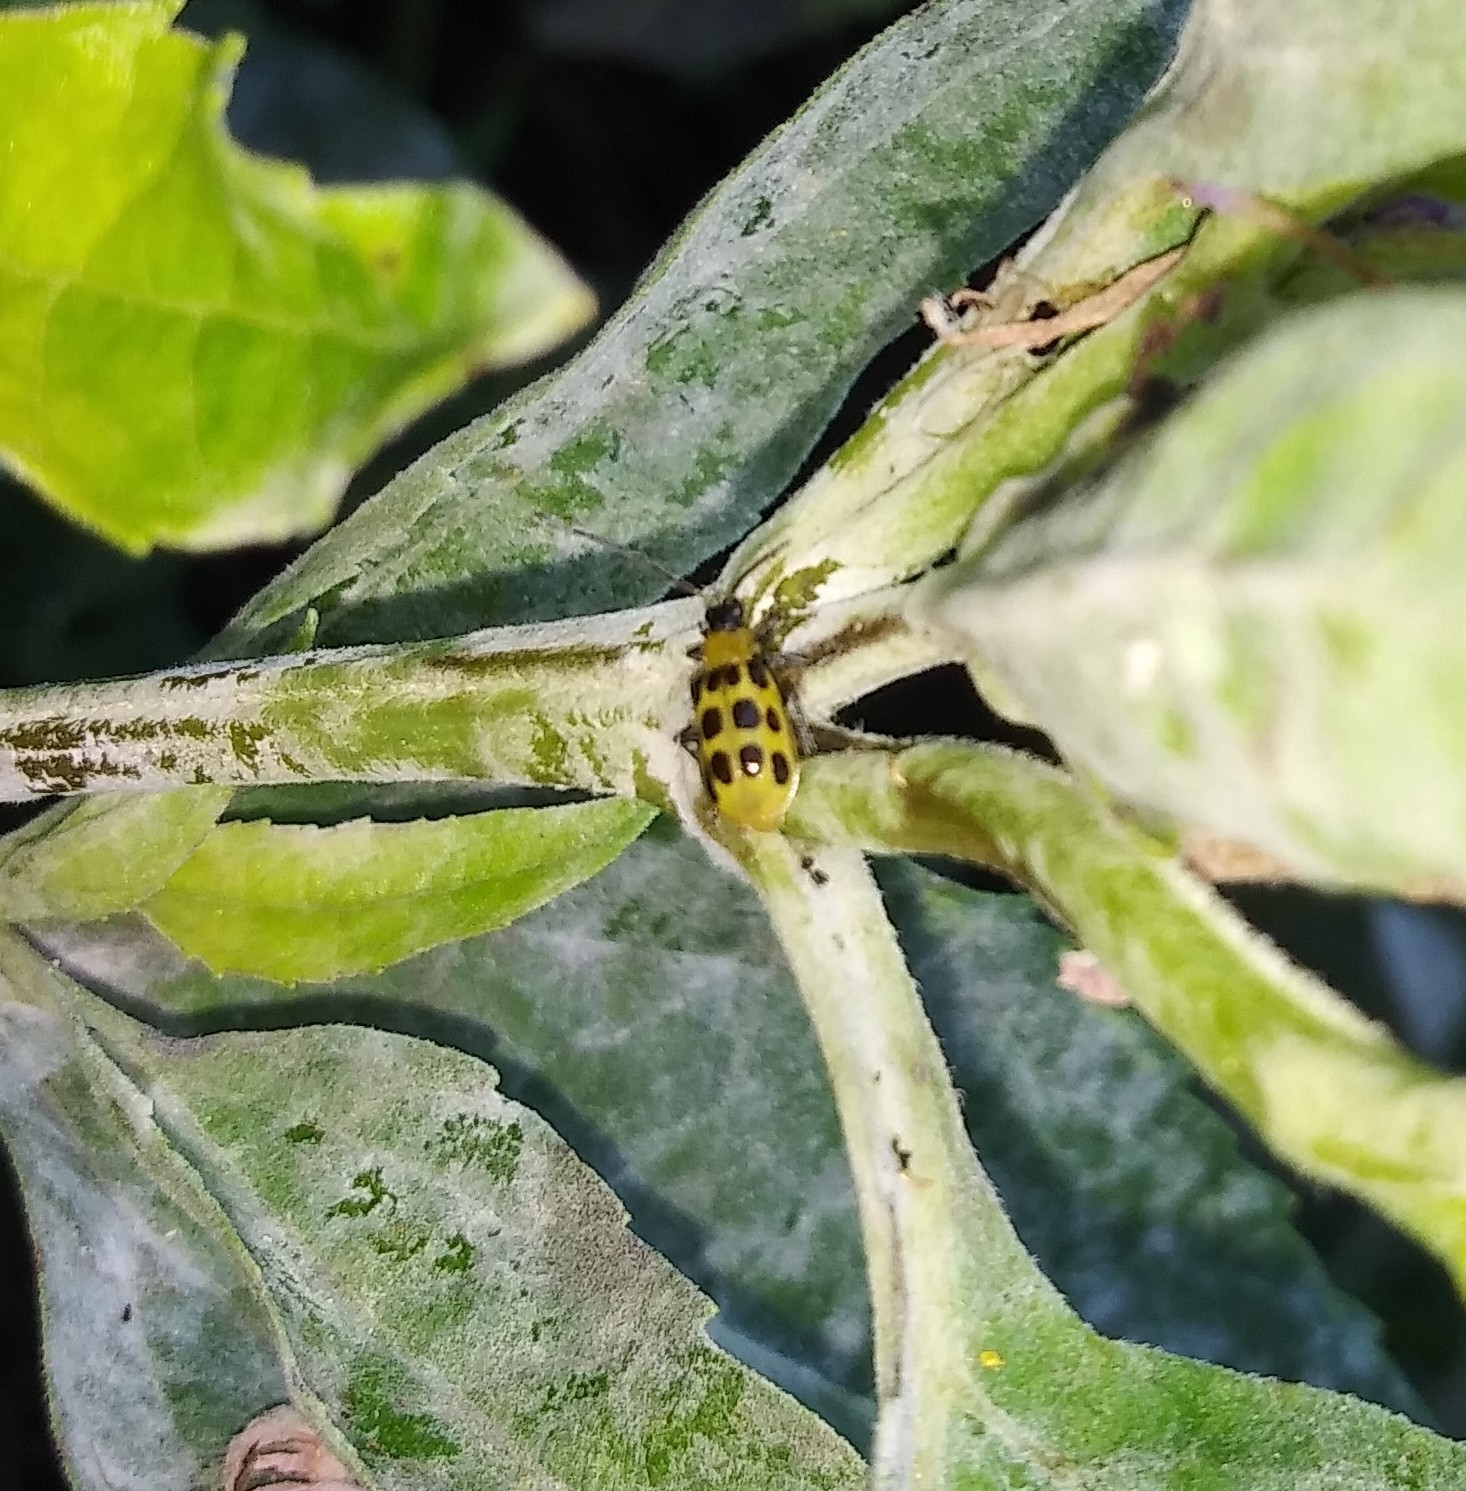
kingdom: Animalia
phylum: Arthropoda
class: Insecta
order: Coleoptera
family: Chrysomelidae
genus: Diabrotica
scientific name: Diabrotica undecimpunctata
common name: Spotted cucumber beetle
